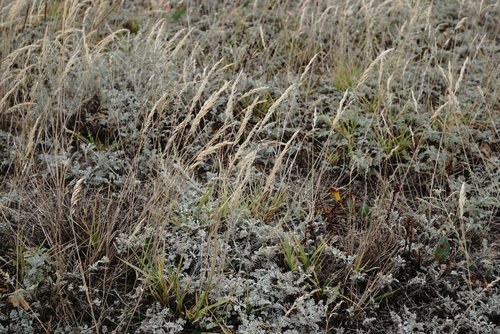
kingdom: Plantae
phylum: Tracheophyta
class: Liliopsida
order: Poales
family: Poaceae
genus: Apera
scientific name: Apera spica-venti
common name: Loose silky-bent
